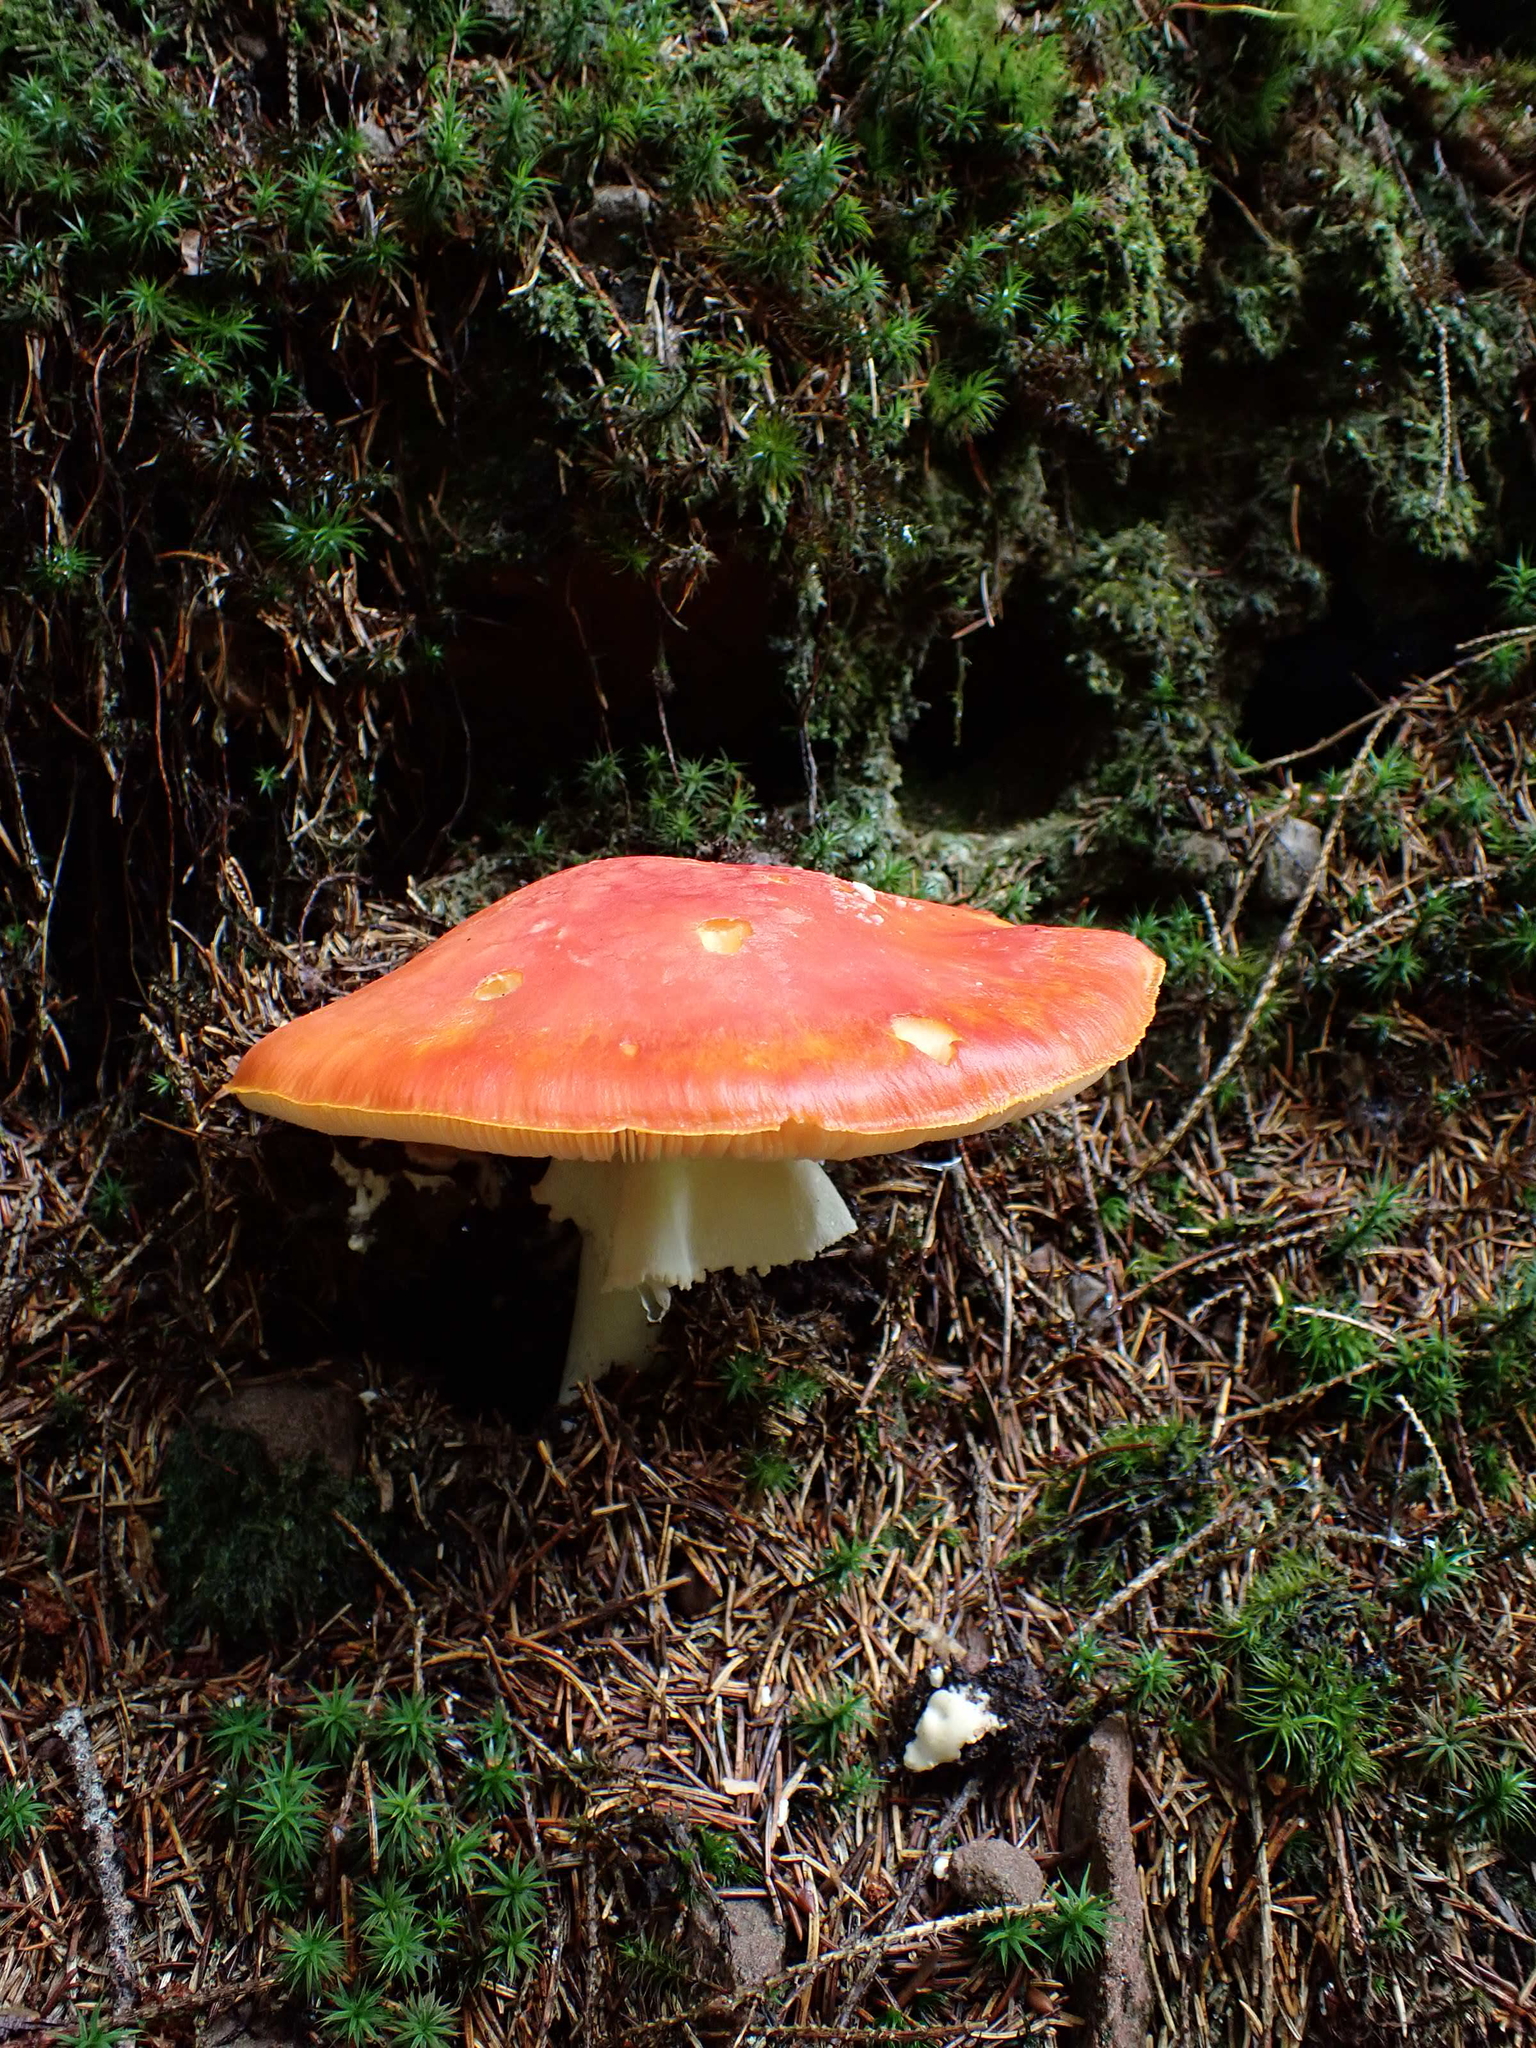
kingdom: Fungi
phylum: Basidiomycota
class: Agaricomycetes
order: Agaricales
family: Amanitaceae
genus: Amanita
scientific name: Amanita muscaria
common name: Fly agaric
